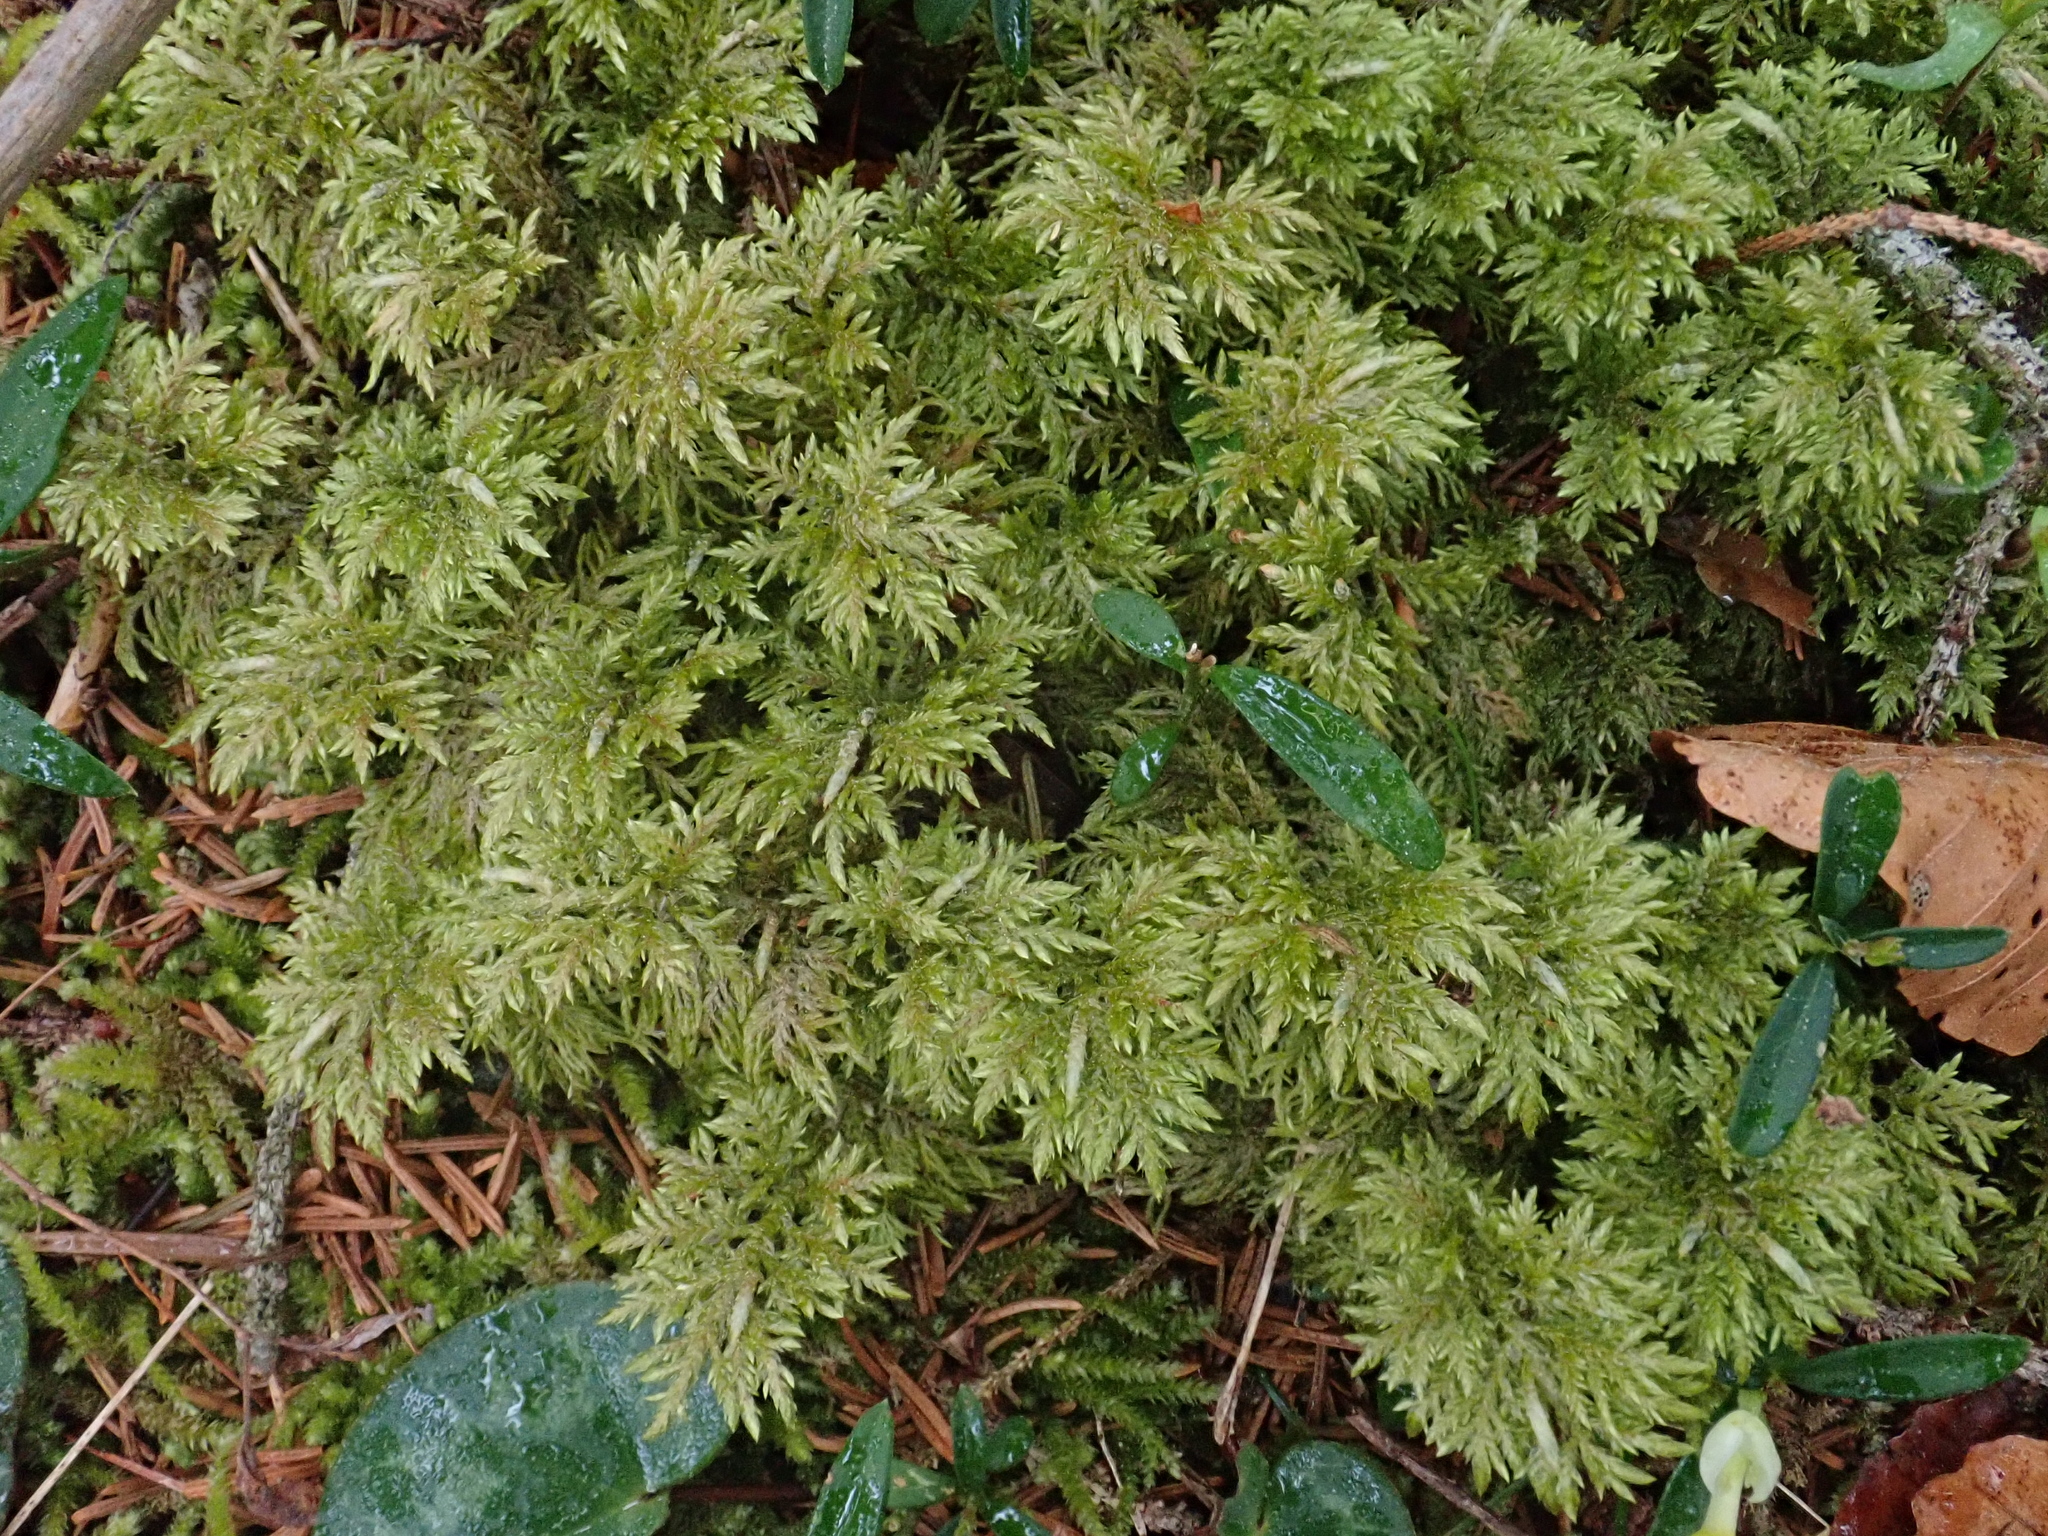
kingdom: Plantae
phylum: Bryophyta
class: Bryopsida
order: Hypnales
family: Hylocomiaceae
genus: Hylocomium
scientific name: Hylocomium splendens
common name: Stairstep moss
